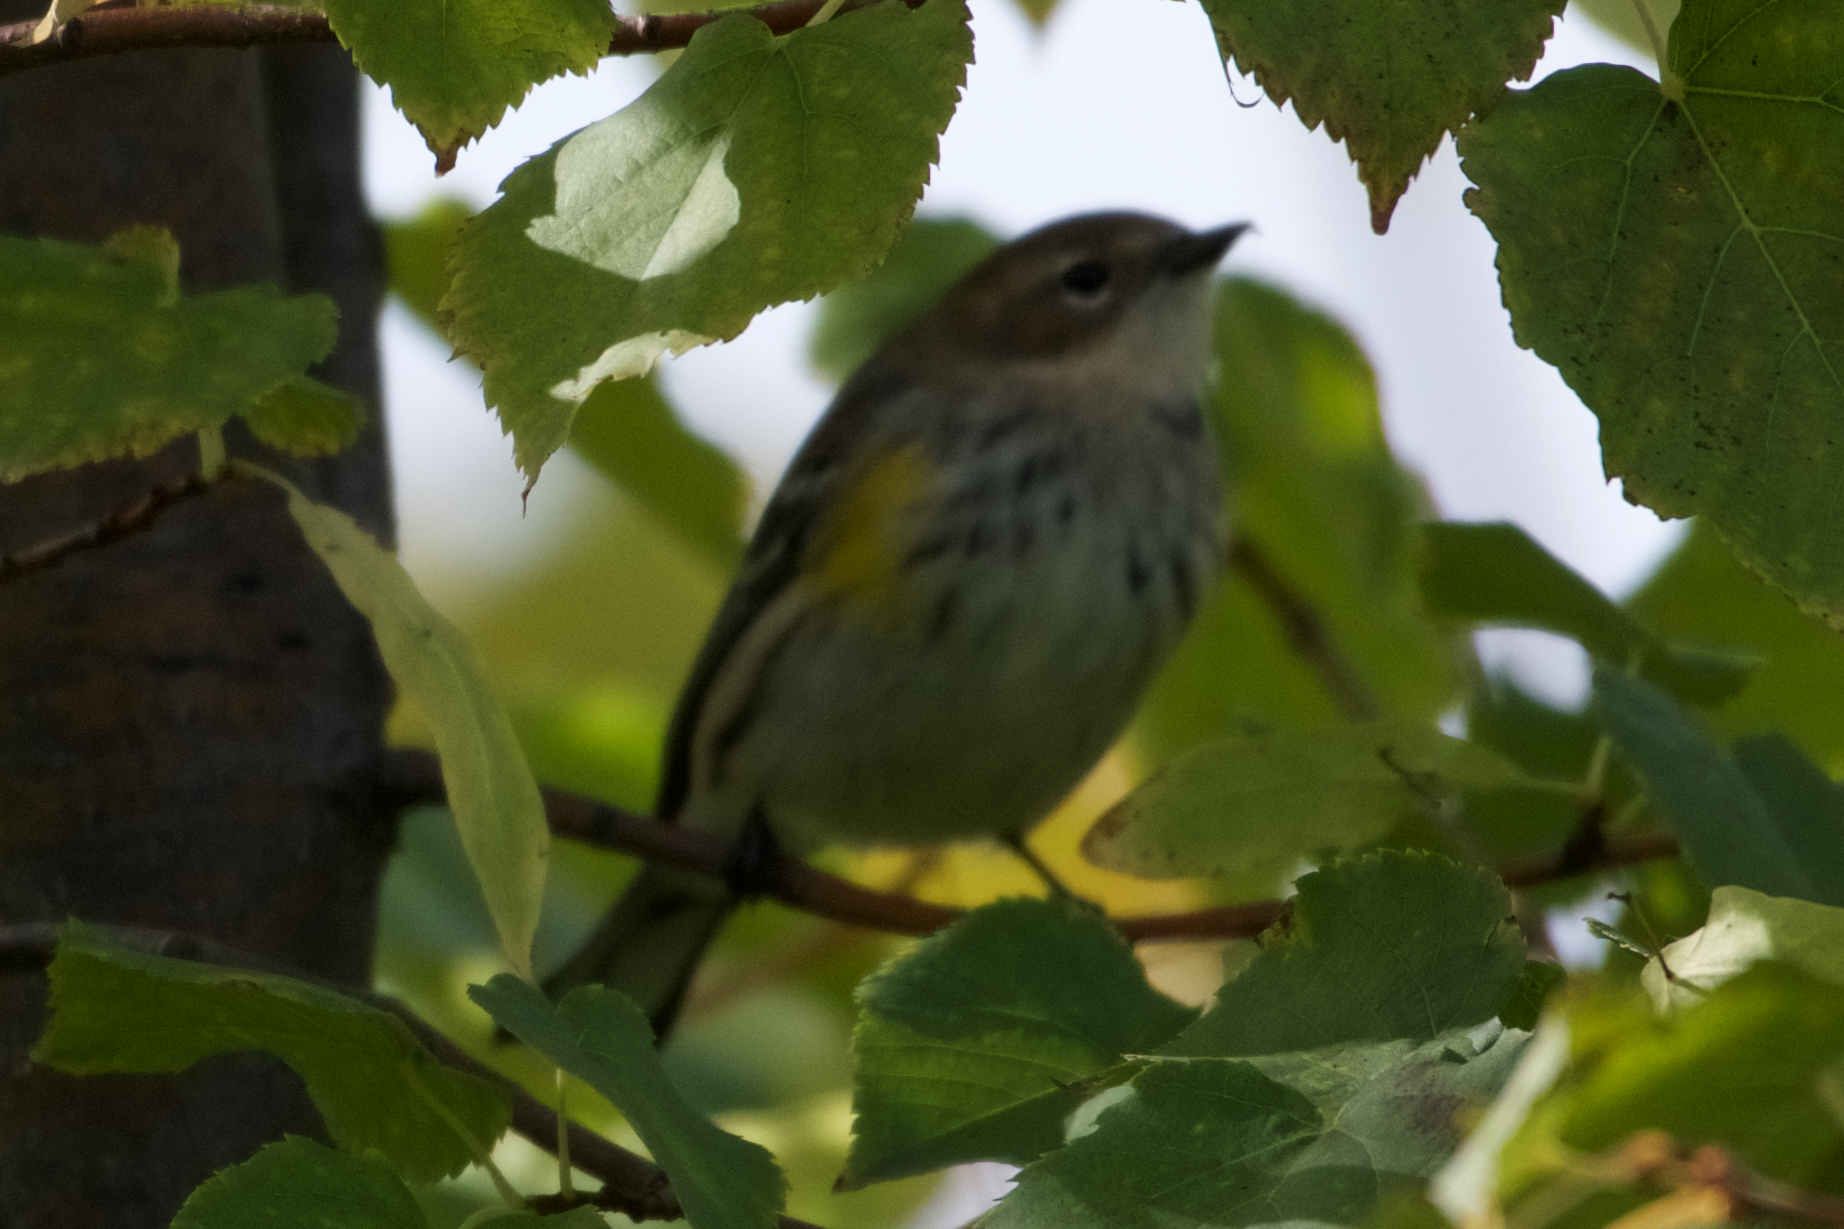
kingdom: Animalia
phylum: Chordata
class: Aves
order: Passeriformes
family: Parulidae
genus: Setophaga
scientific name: Setophaga coronata
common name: Myrtle warbler
